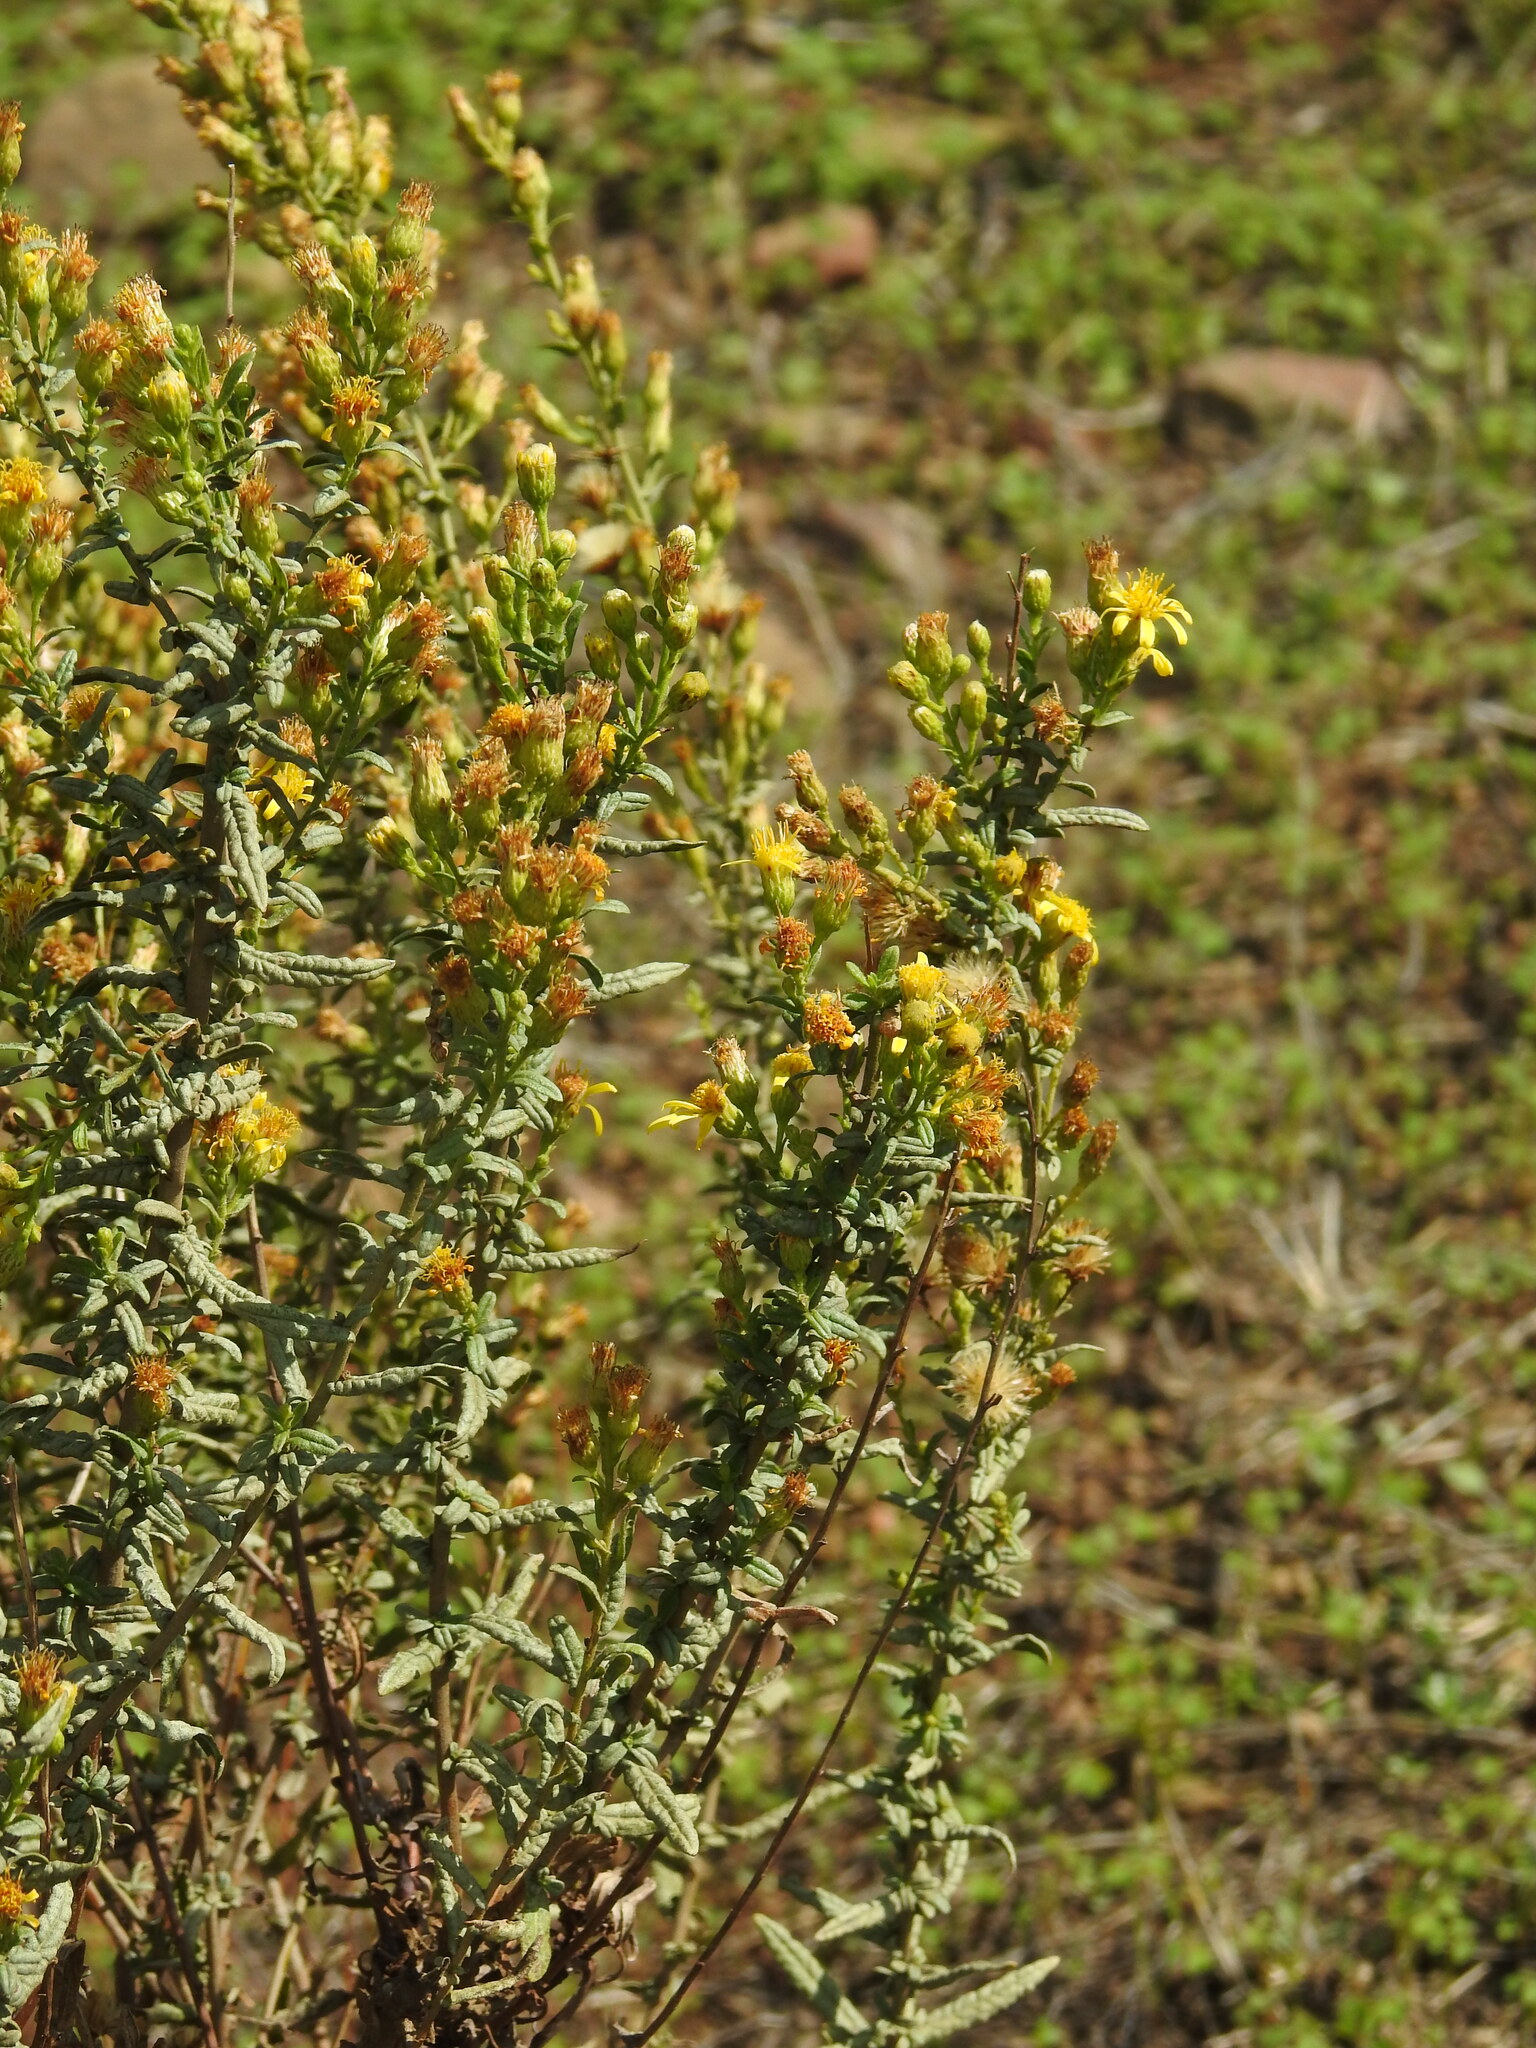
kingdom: Plantae
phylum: Tracheophyta
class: Magnoliopsida
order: Asterales
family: Asteraceae
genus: Dittrichia
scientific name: Dittrichia viscosa
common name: Woody fleabane
